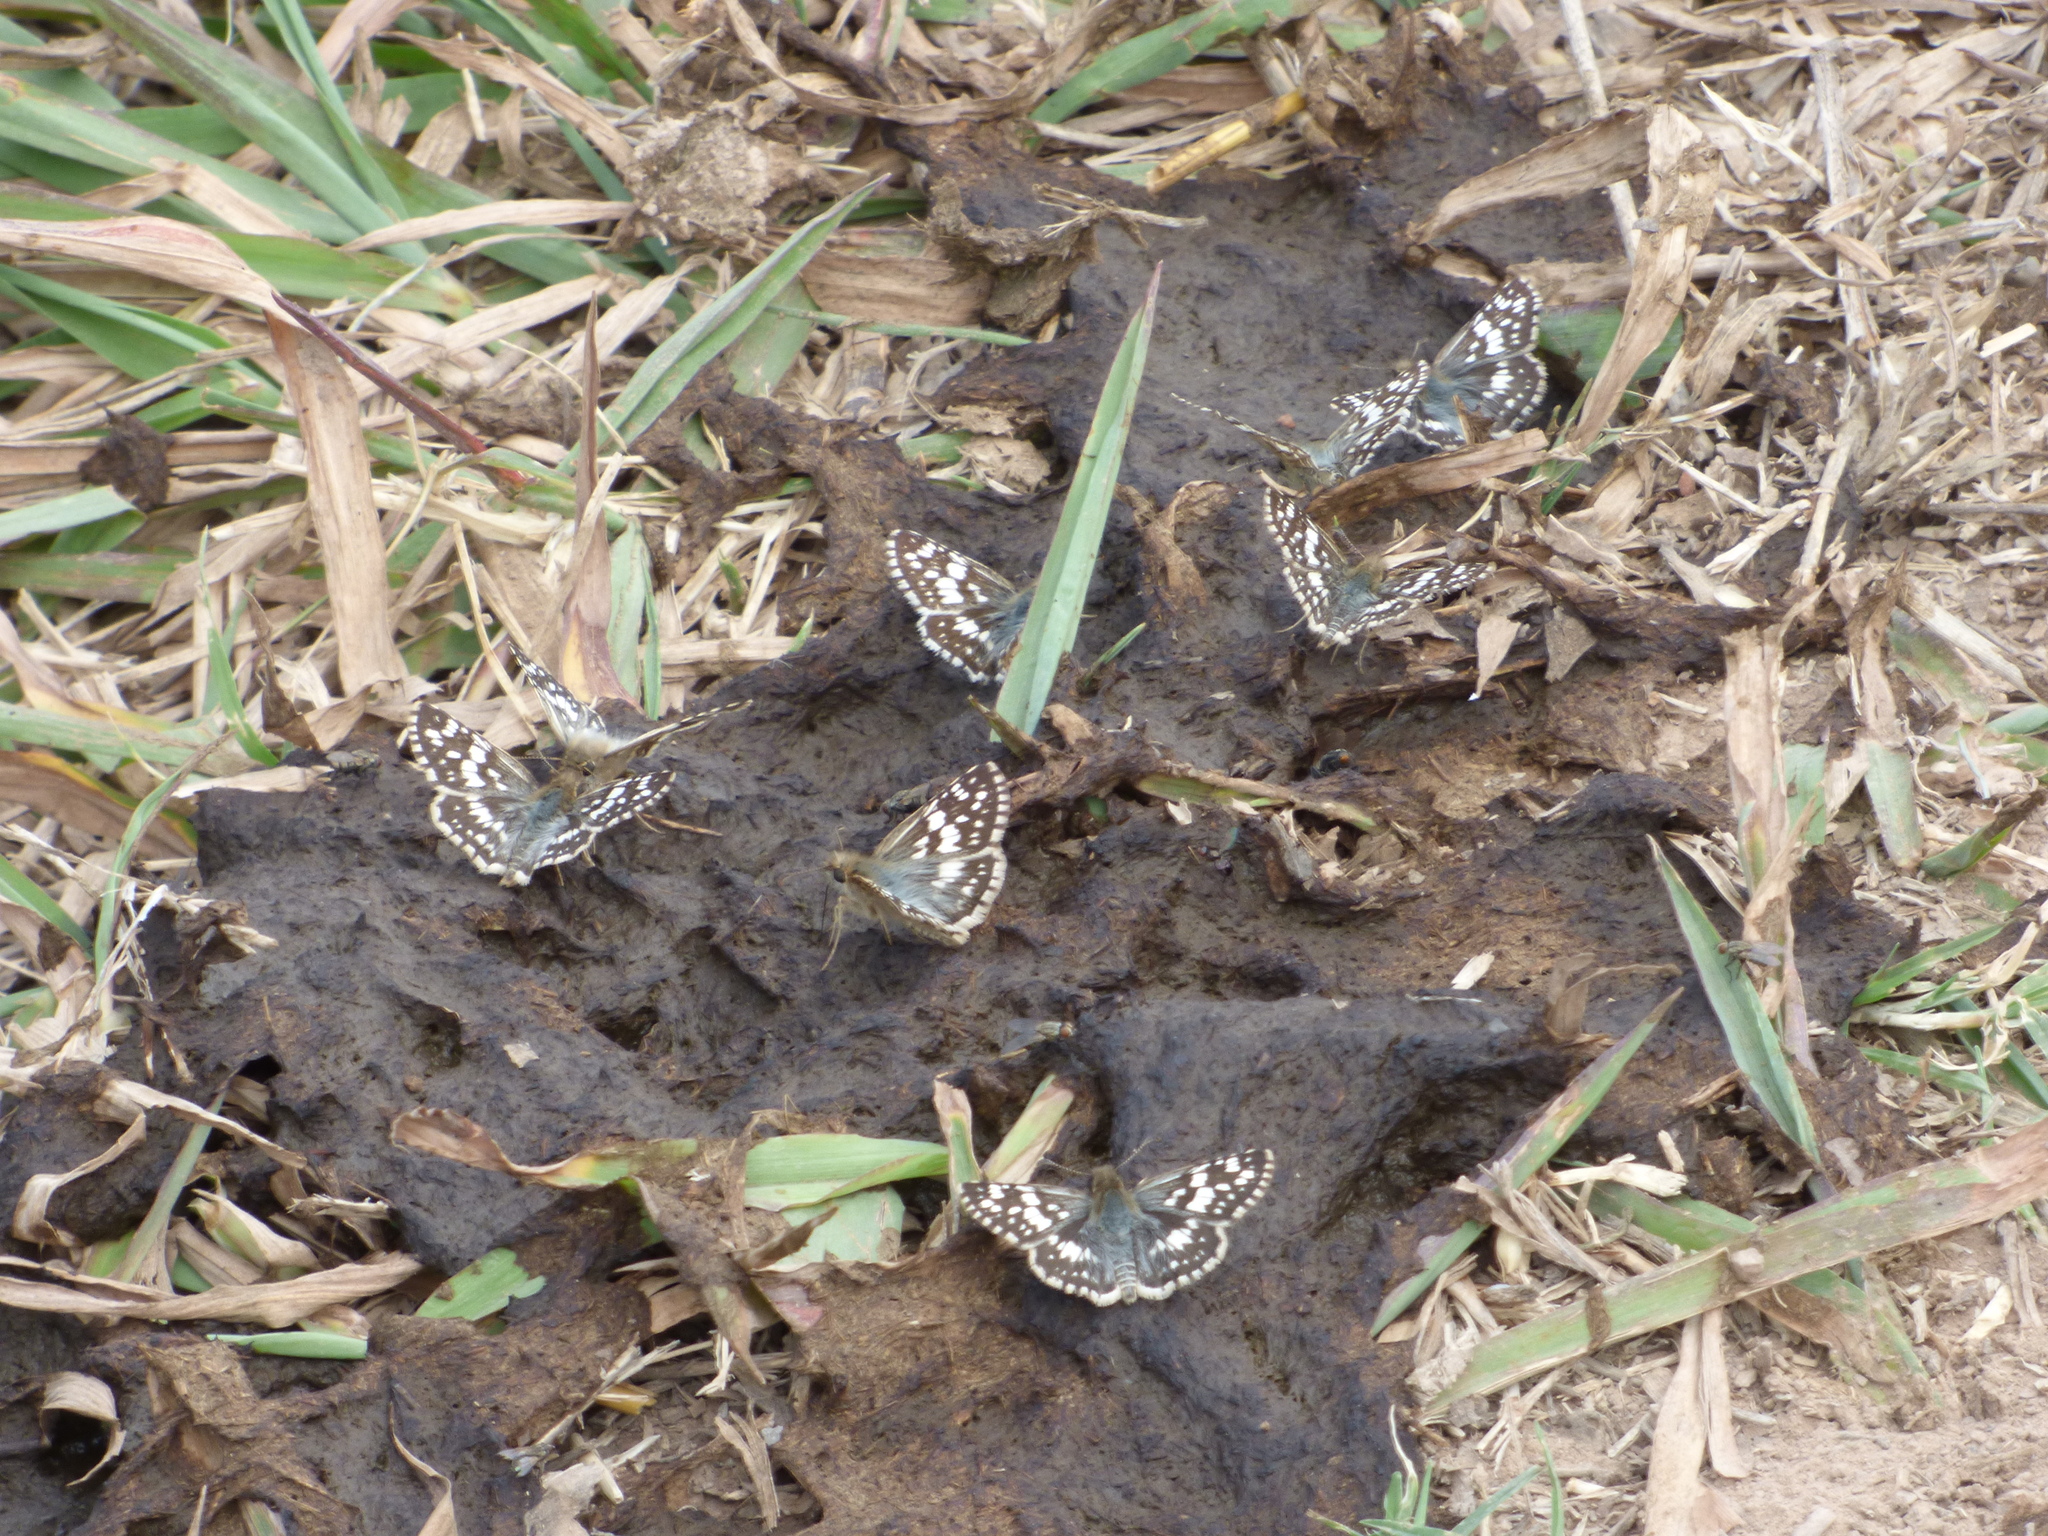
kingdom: Animalia
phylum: Arthropoda
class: Insecta
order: Lepidoptera
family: Hesperiidae
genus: Burnsius
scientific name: Burnsius orcynoides
